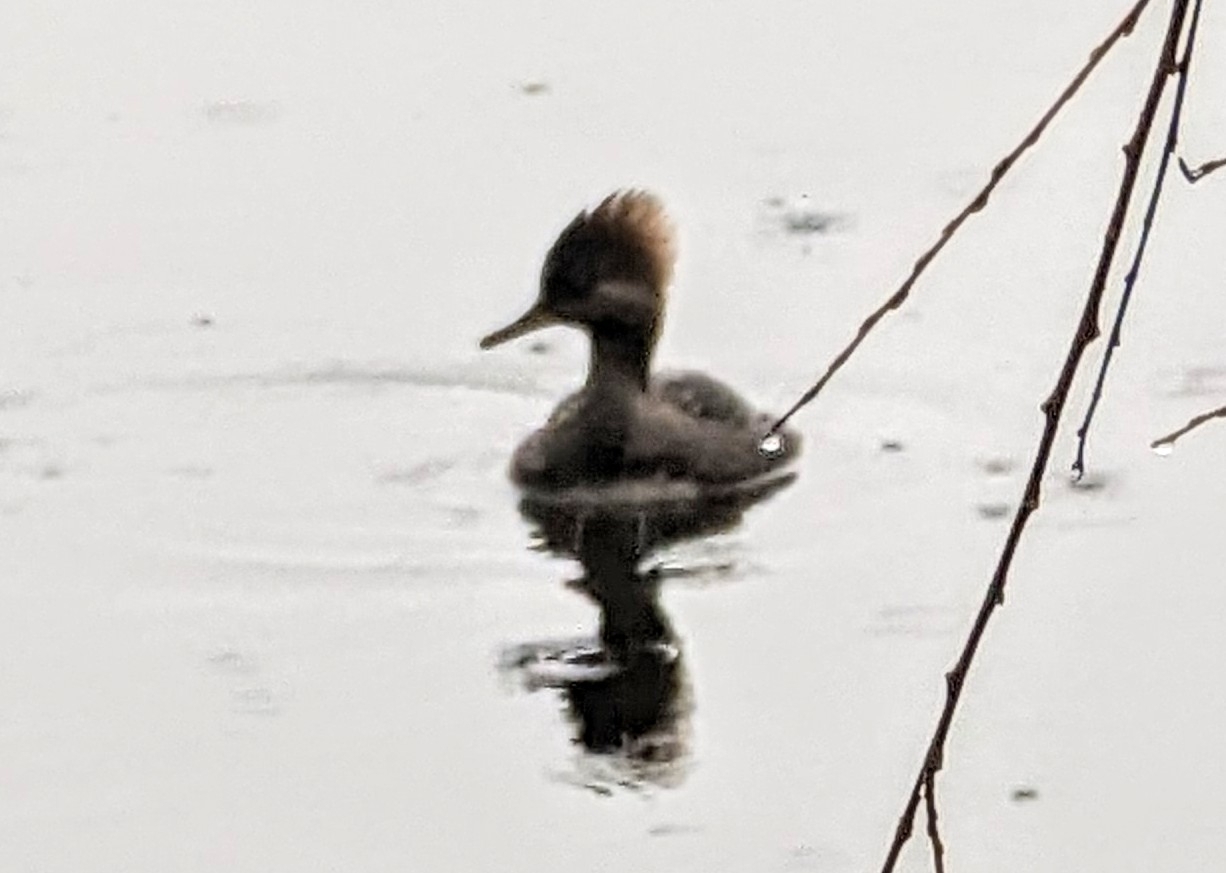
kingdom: Animalia
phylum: Chordata
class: Aves
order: Anseriformes
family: Anatidae
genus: Lophodytes
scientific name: Lophodytes cucullatus
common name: Hooded merganser
